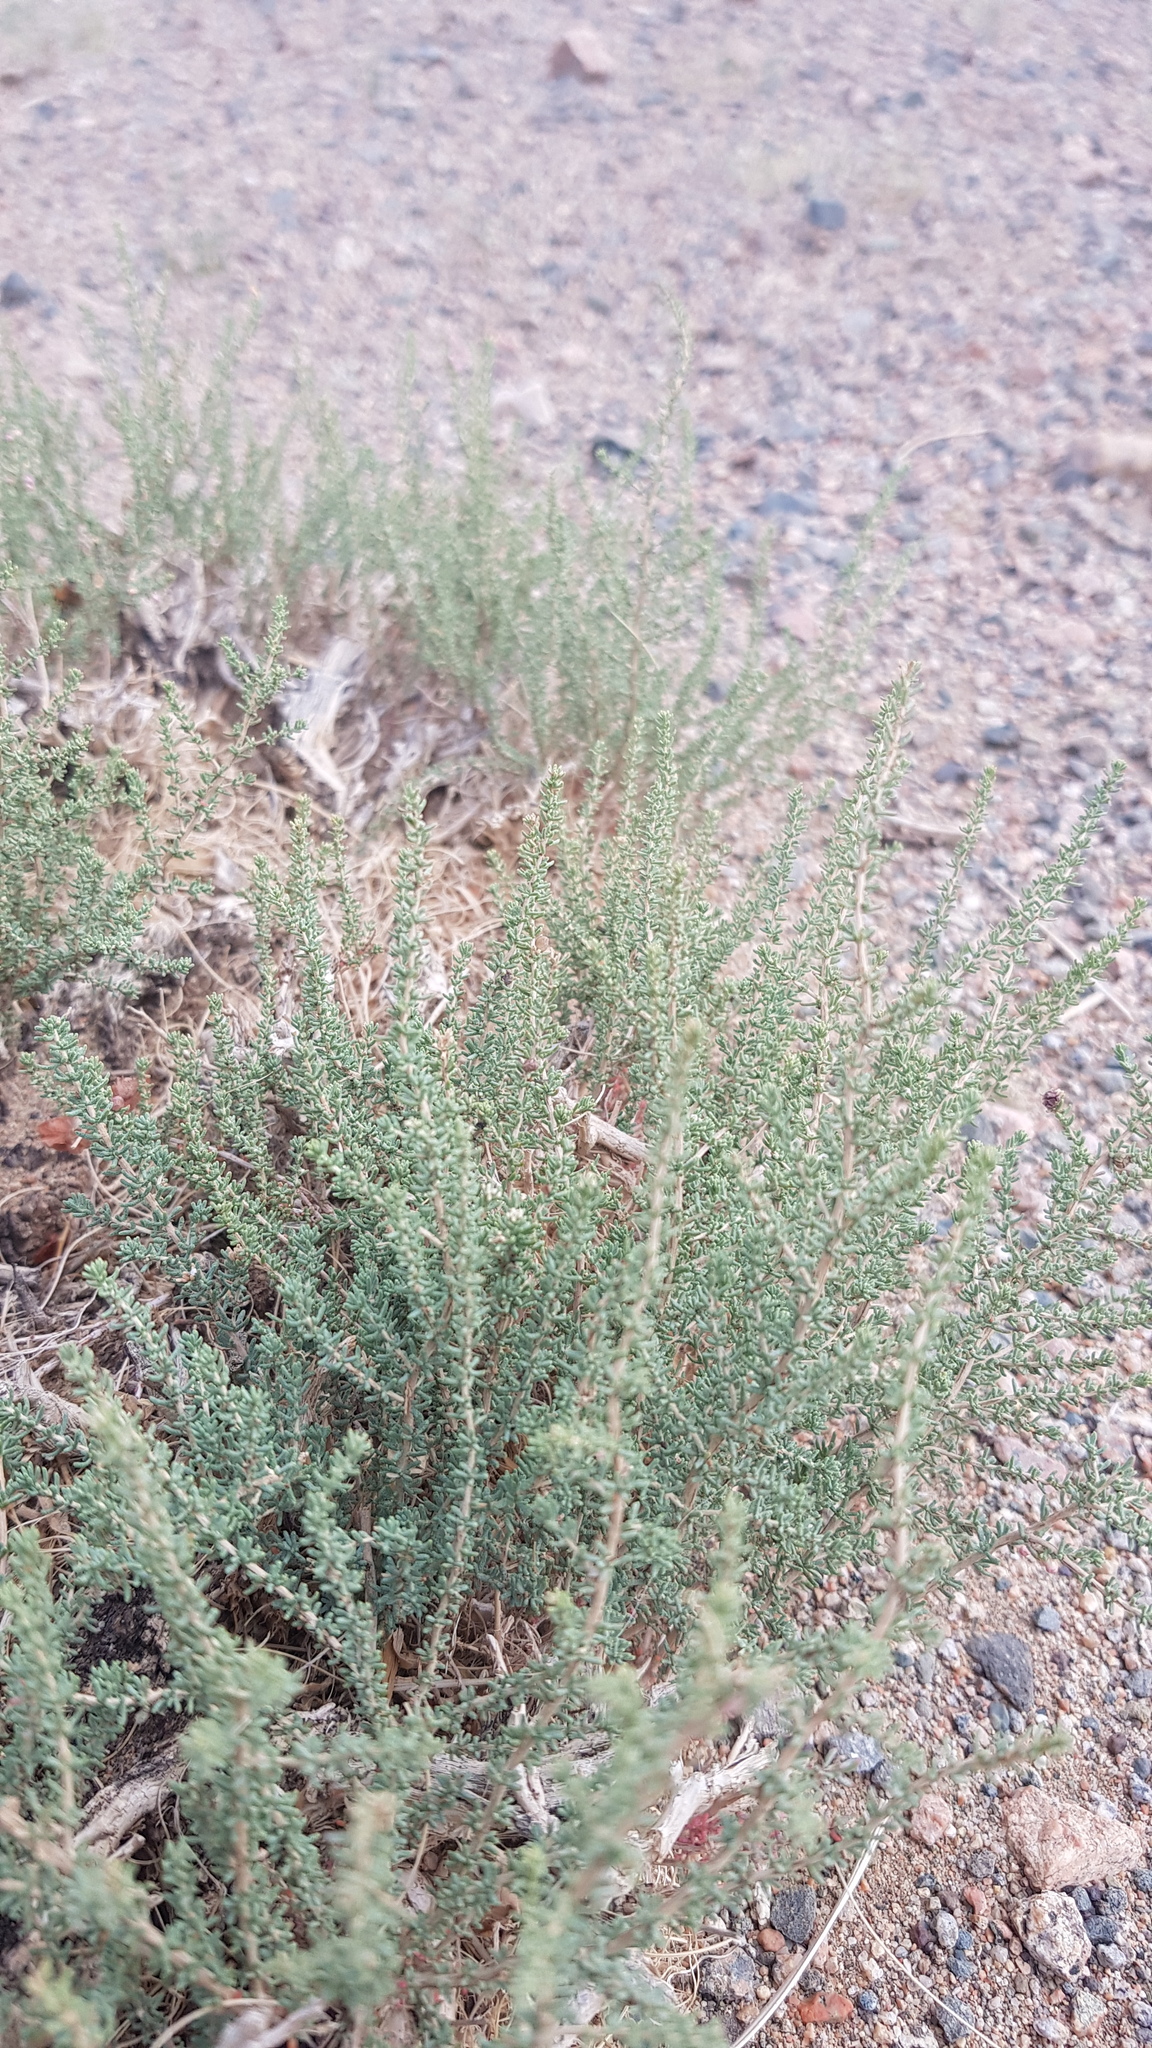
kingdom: Plantae
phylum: Tracheophyta
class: Magnoliopsida
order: Caryophyllales
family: Tamaricaceae
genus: Reaumuria
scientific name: Reaumuria songarica
